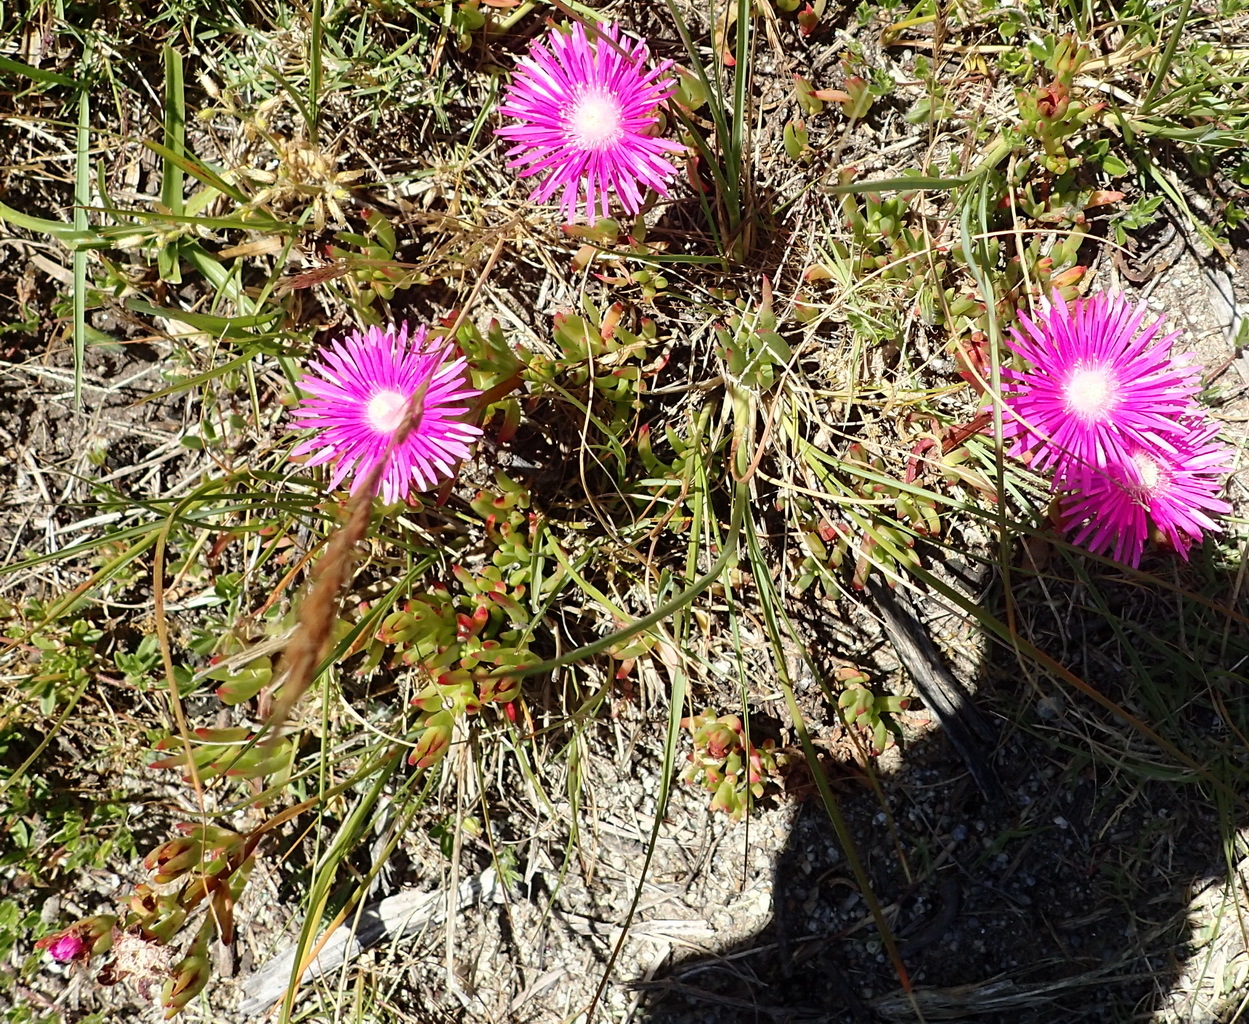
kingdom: Plantae
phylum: Tracheophyta
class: Magnoliopsida
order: Caryophyllales
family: Aizoaceae
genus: Ruschia
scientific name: Ruschia duthiae
